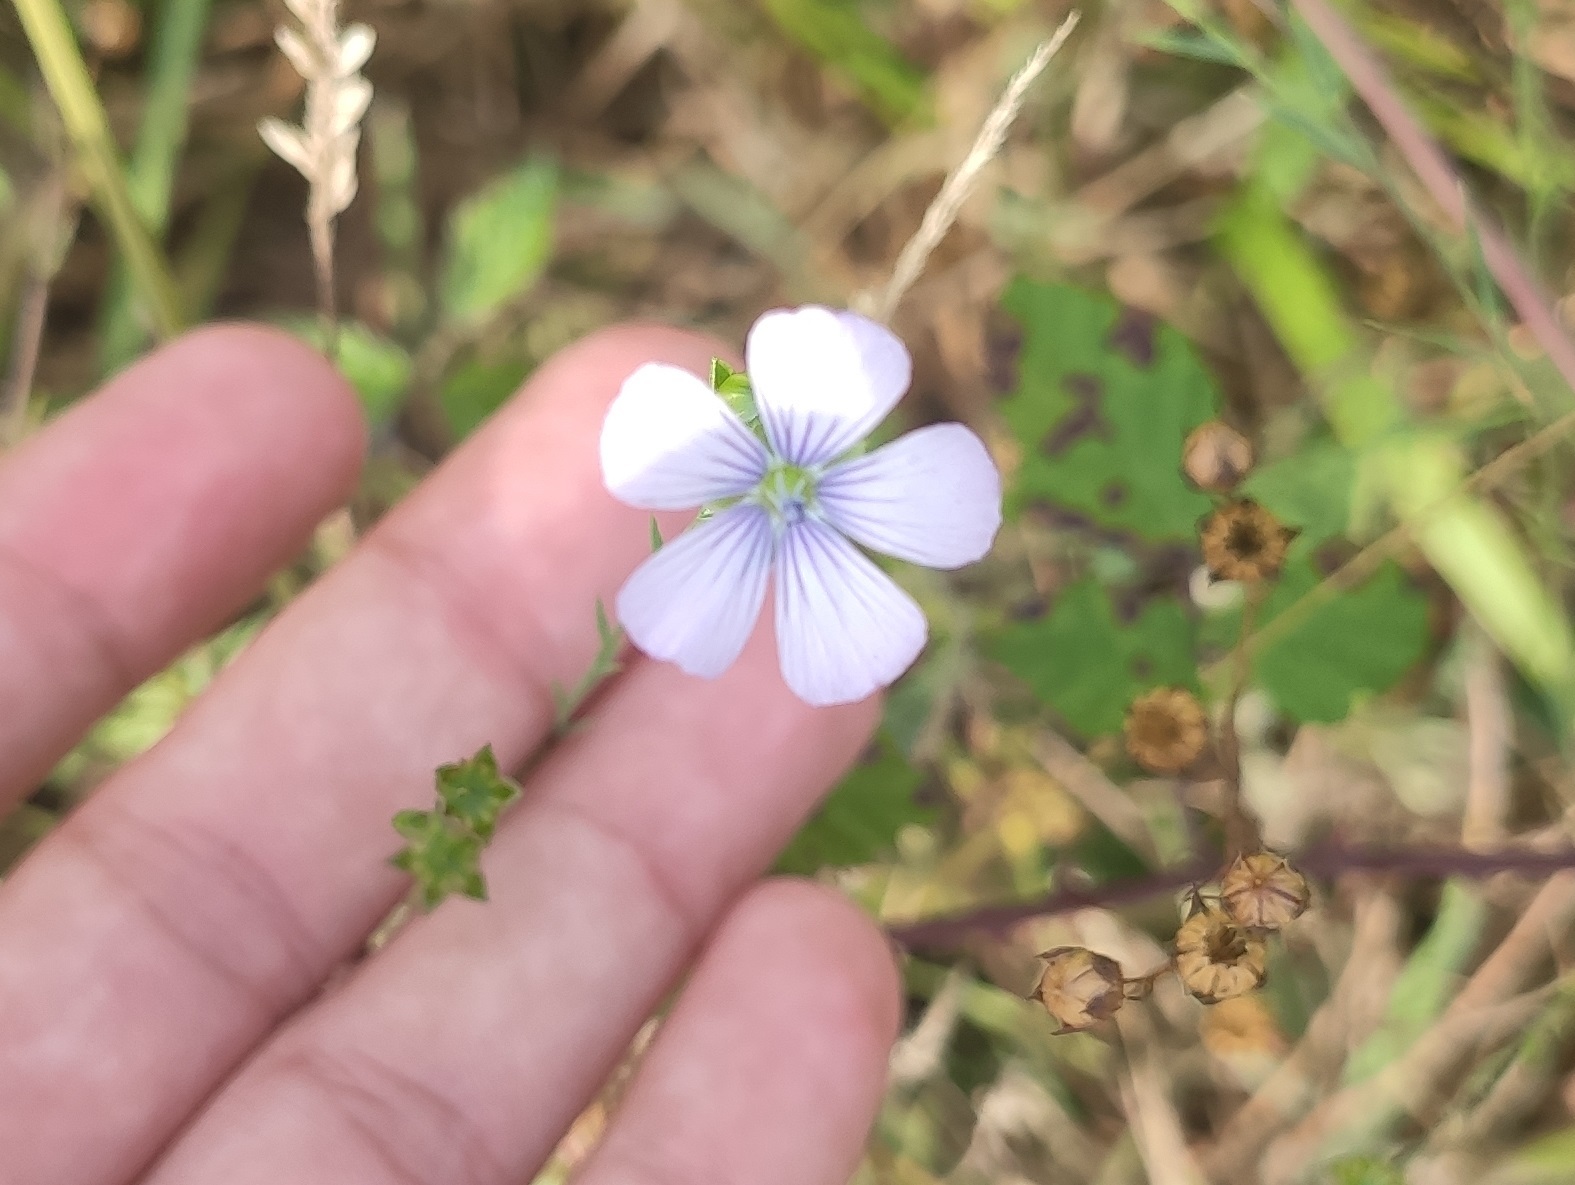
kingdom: Plantae
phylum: Tracheophyta
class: Magnoliopsida
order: Malpighiales
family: Linaceae
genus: Linum
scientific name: Linum bienne
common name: Pale flax
